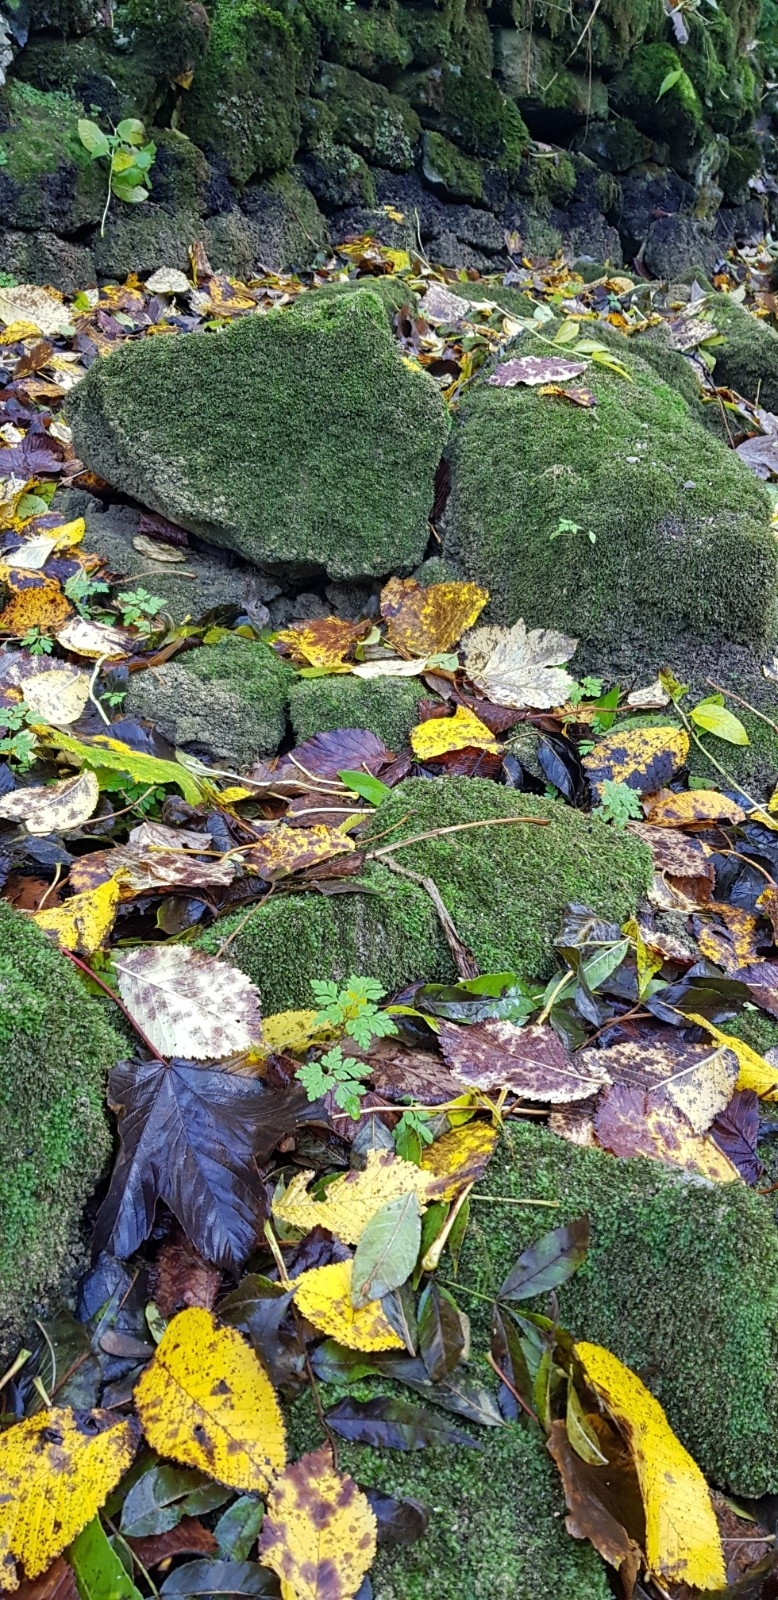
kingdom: Plantae
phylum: Bryophyta
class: Bryopsida
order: Dicranales
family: Fissidentaceae
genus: Fissidens
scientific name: Fissidens crassipes
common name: Fatfoot pocket-moss
